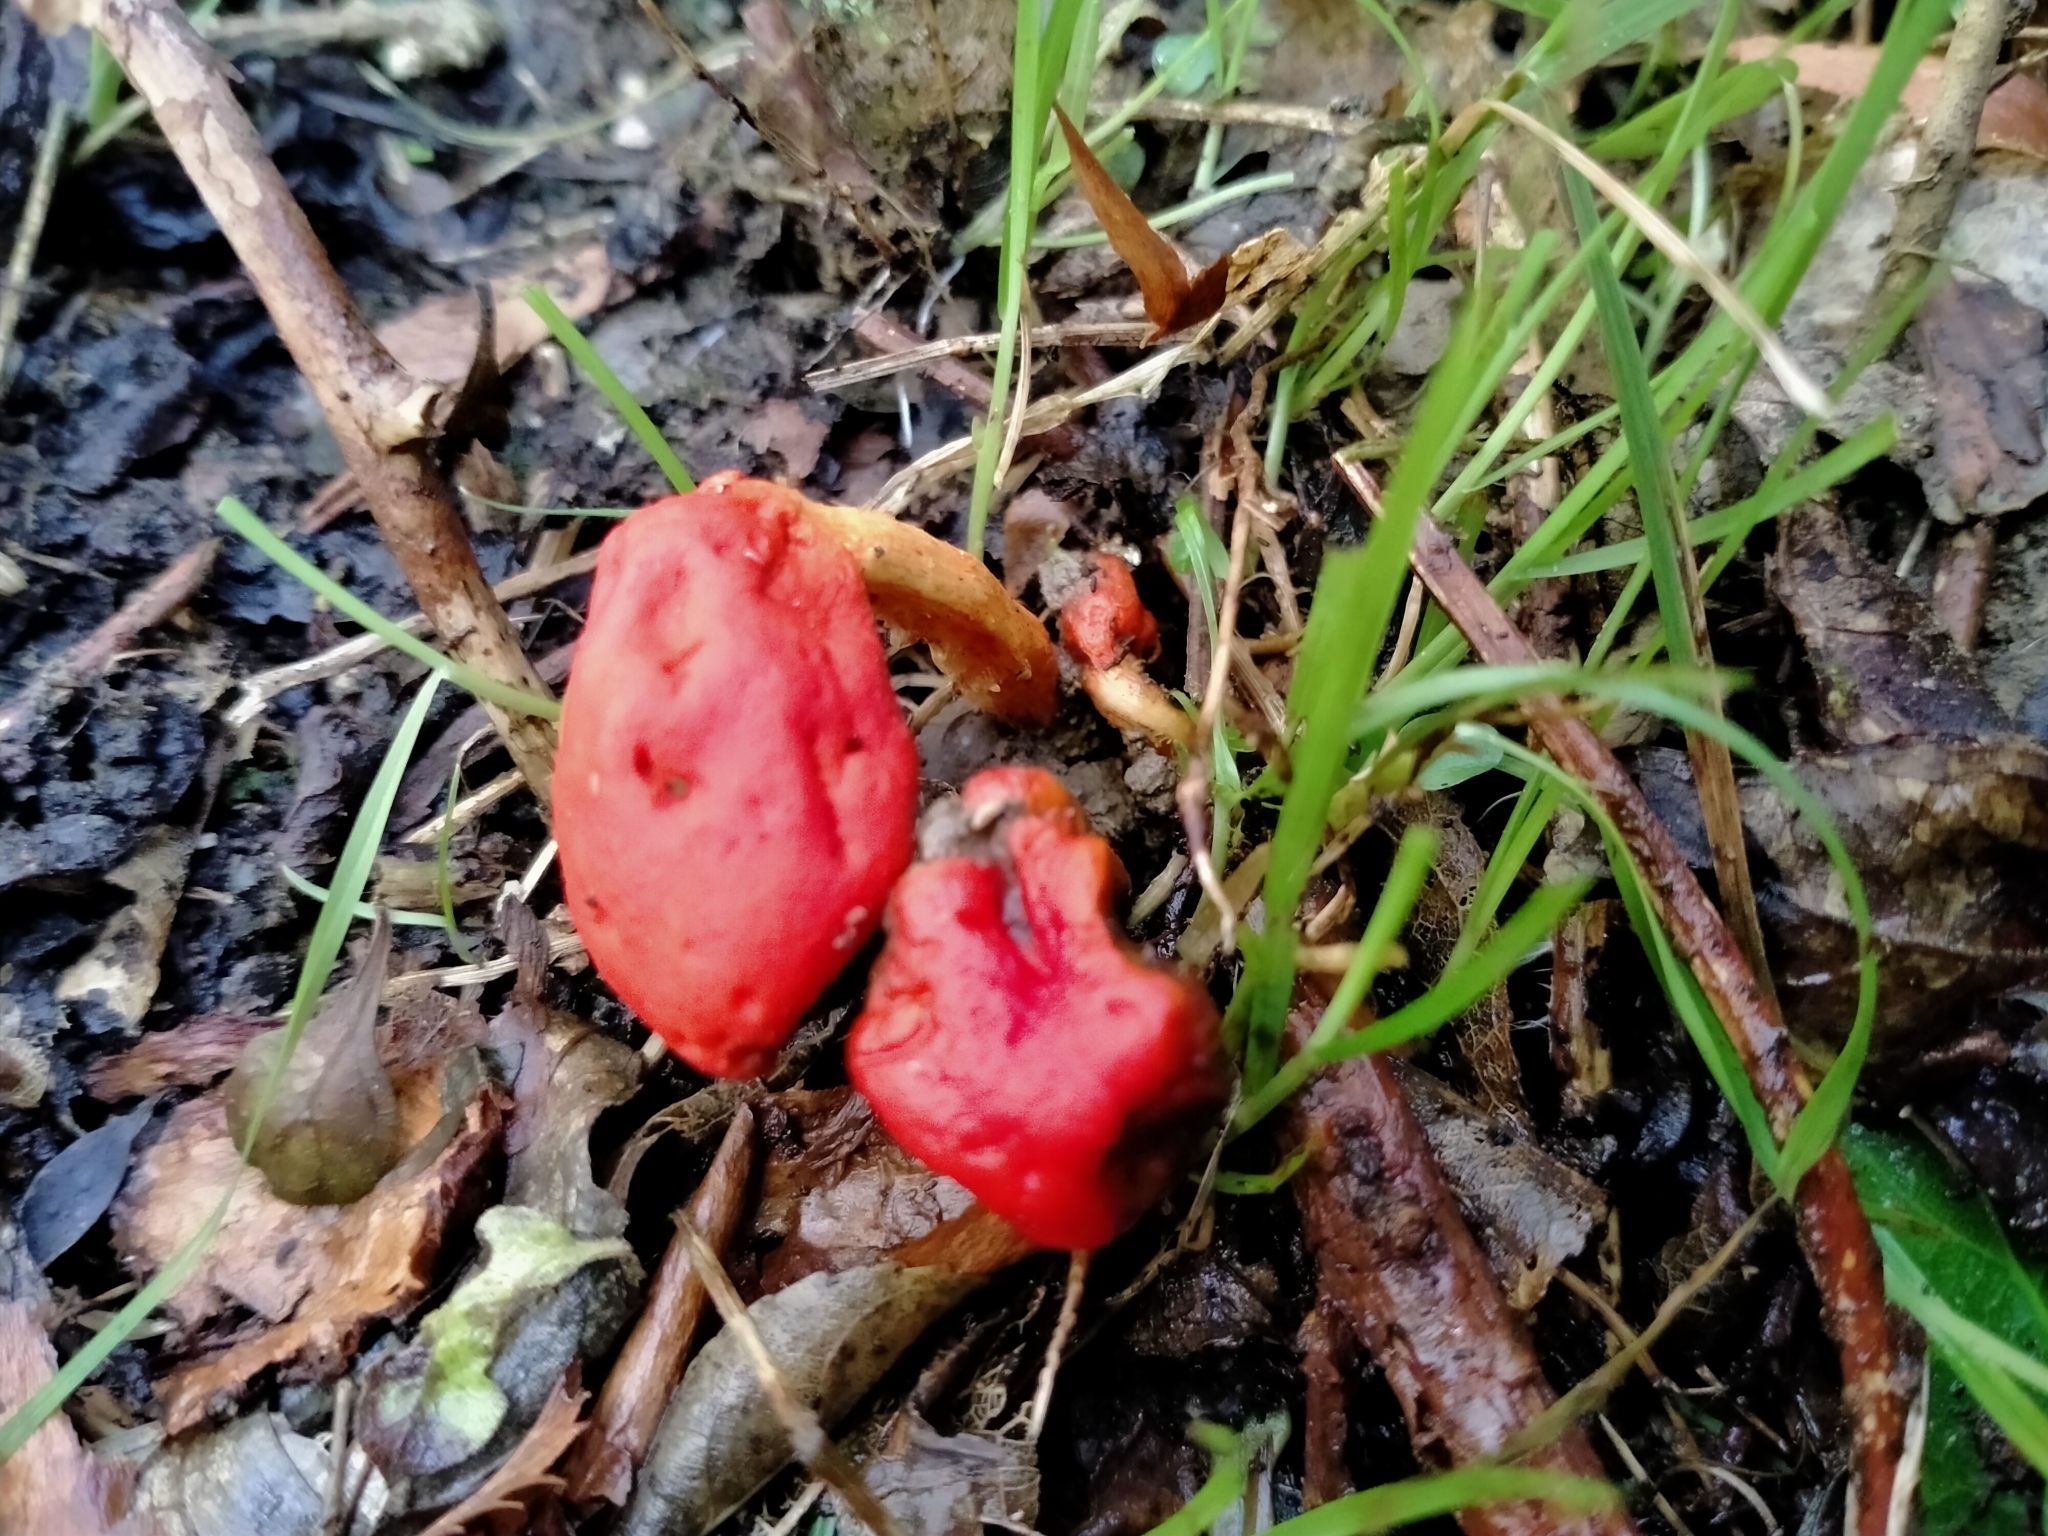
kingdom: Fungi
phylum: Basidiomycota
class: Agaricomycetes
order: Agaricales
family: Strophariaceae
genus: Leratiomyces
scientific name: Leratiomyces erythrocephalus
